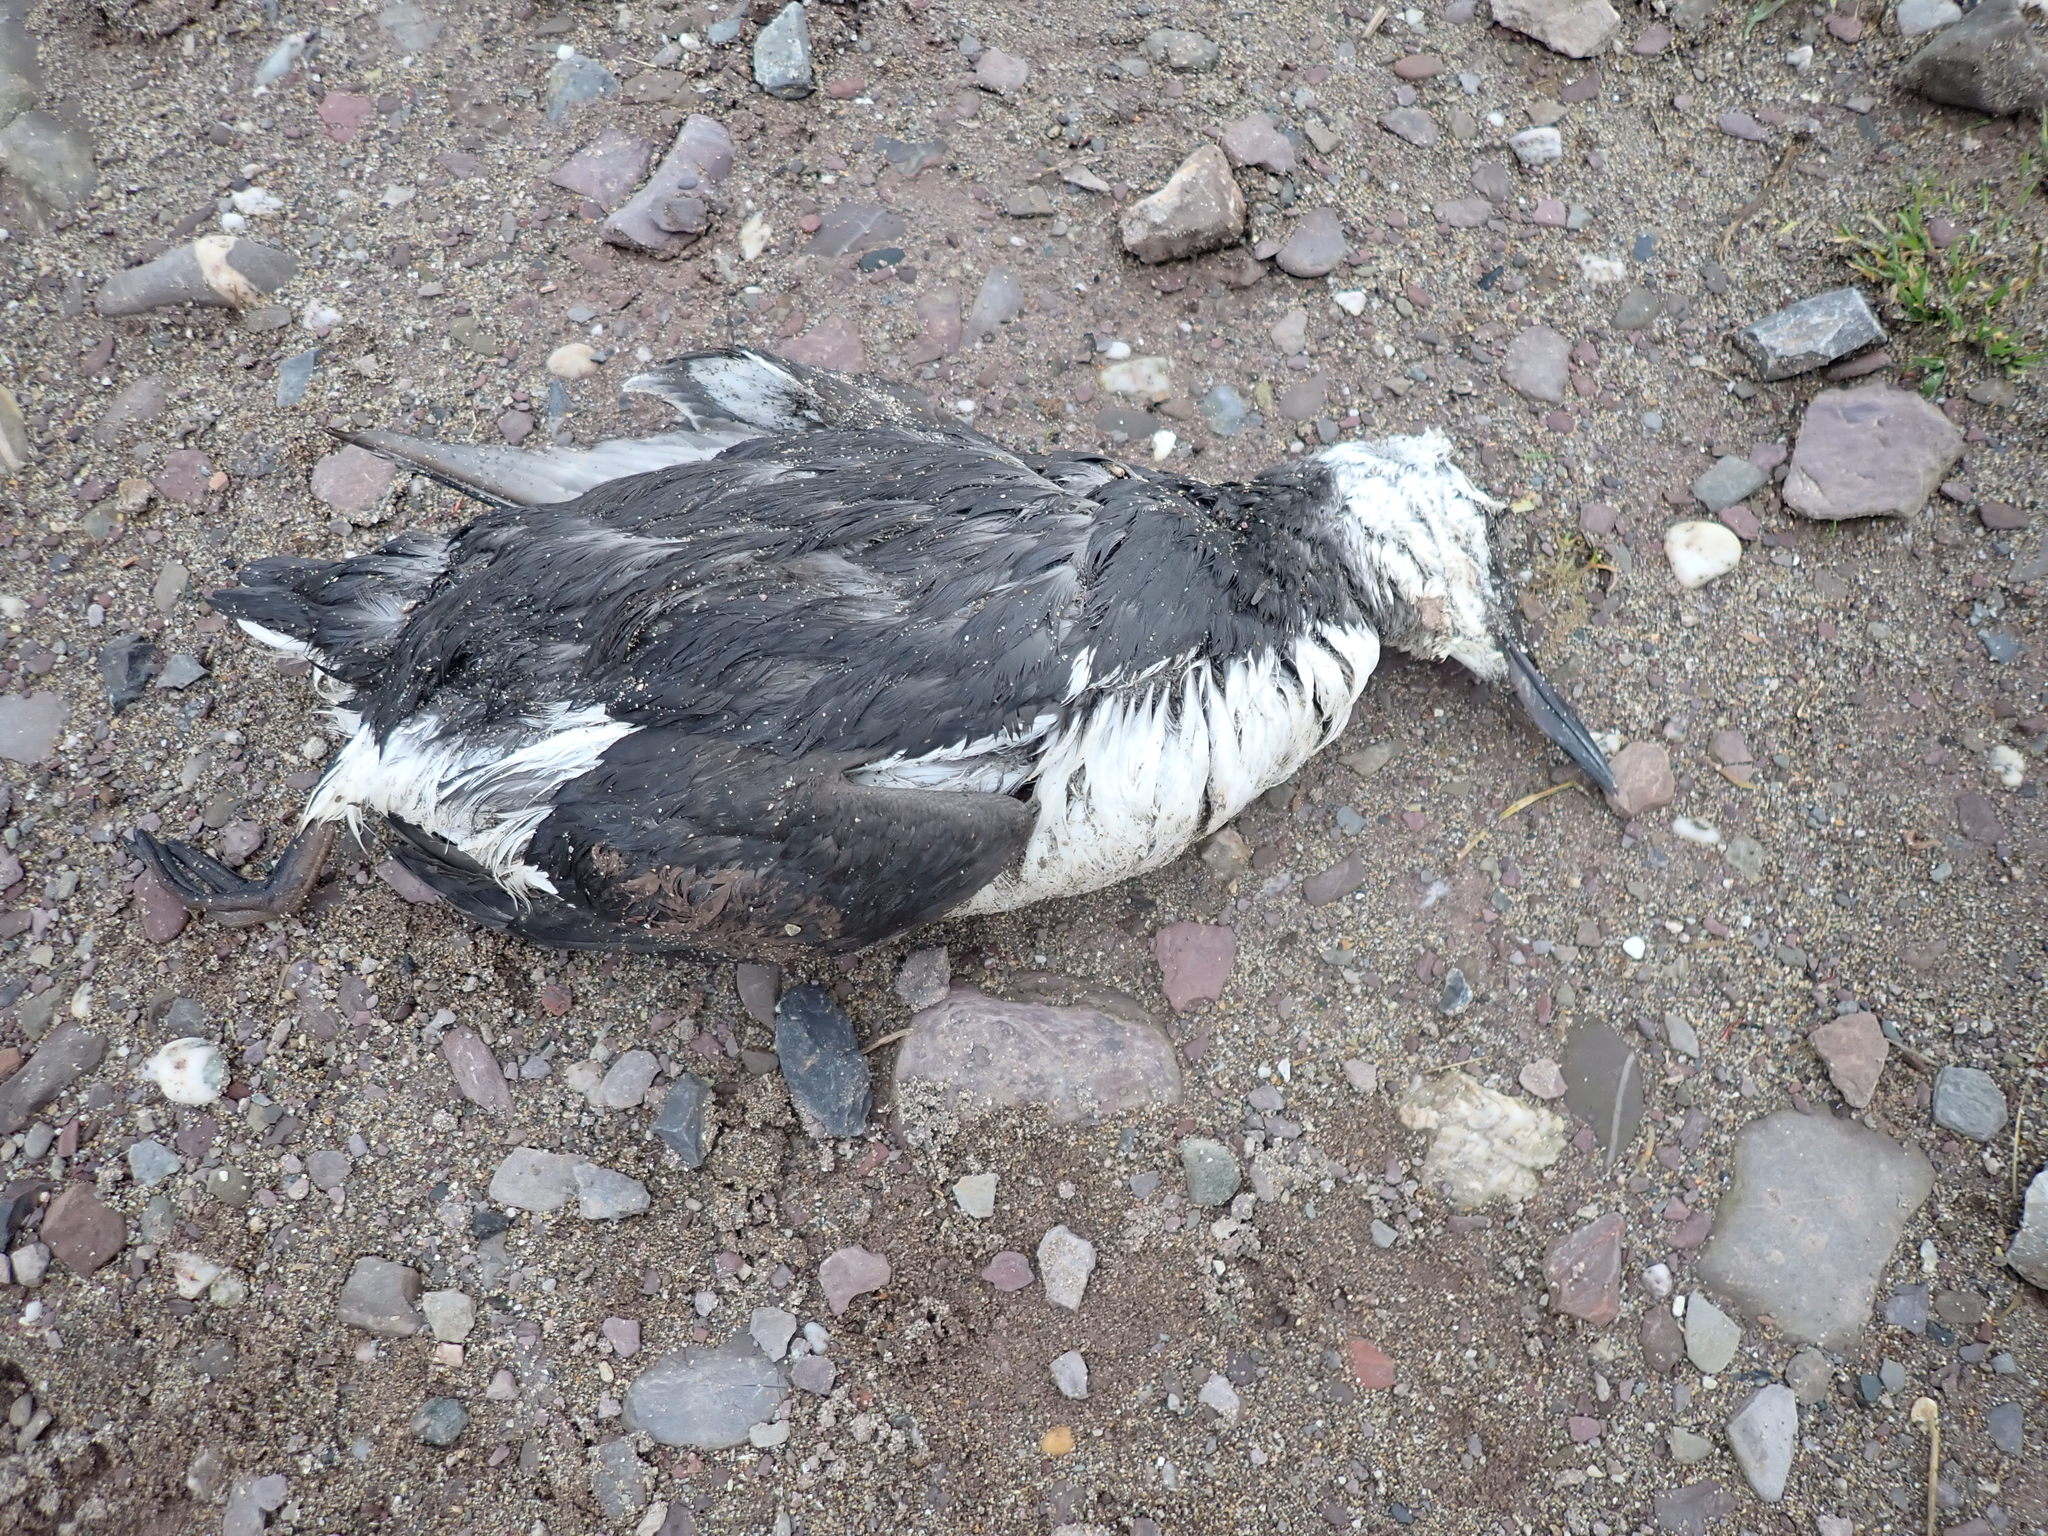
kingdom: Animalia
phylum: Chordata
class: Aves
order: Charadriiformes
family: Alcidae
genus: Uria
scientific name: Uria aalge
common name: Common murre
